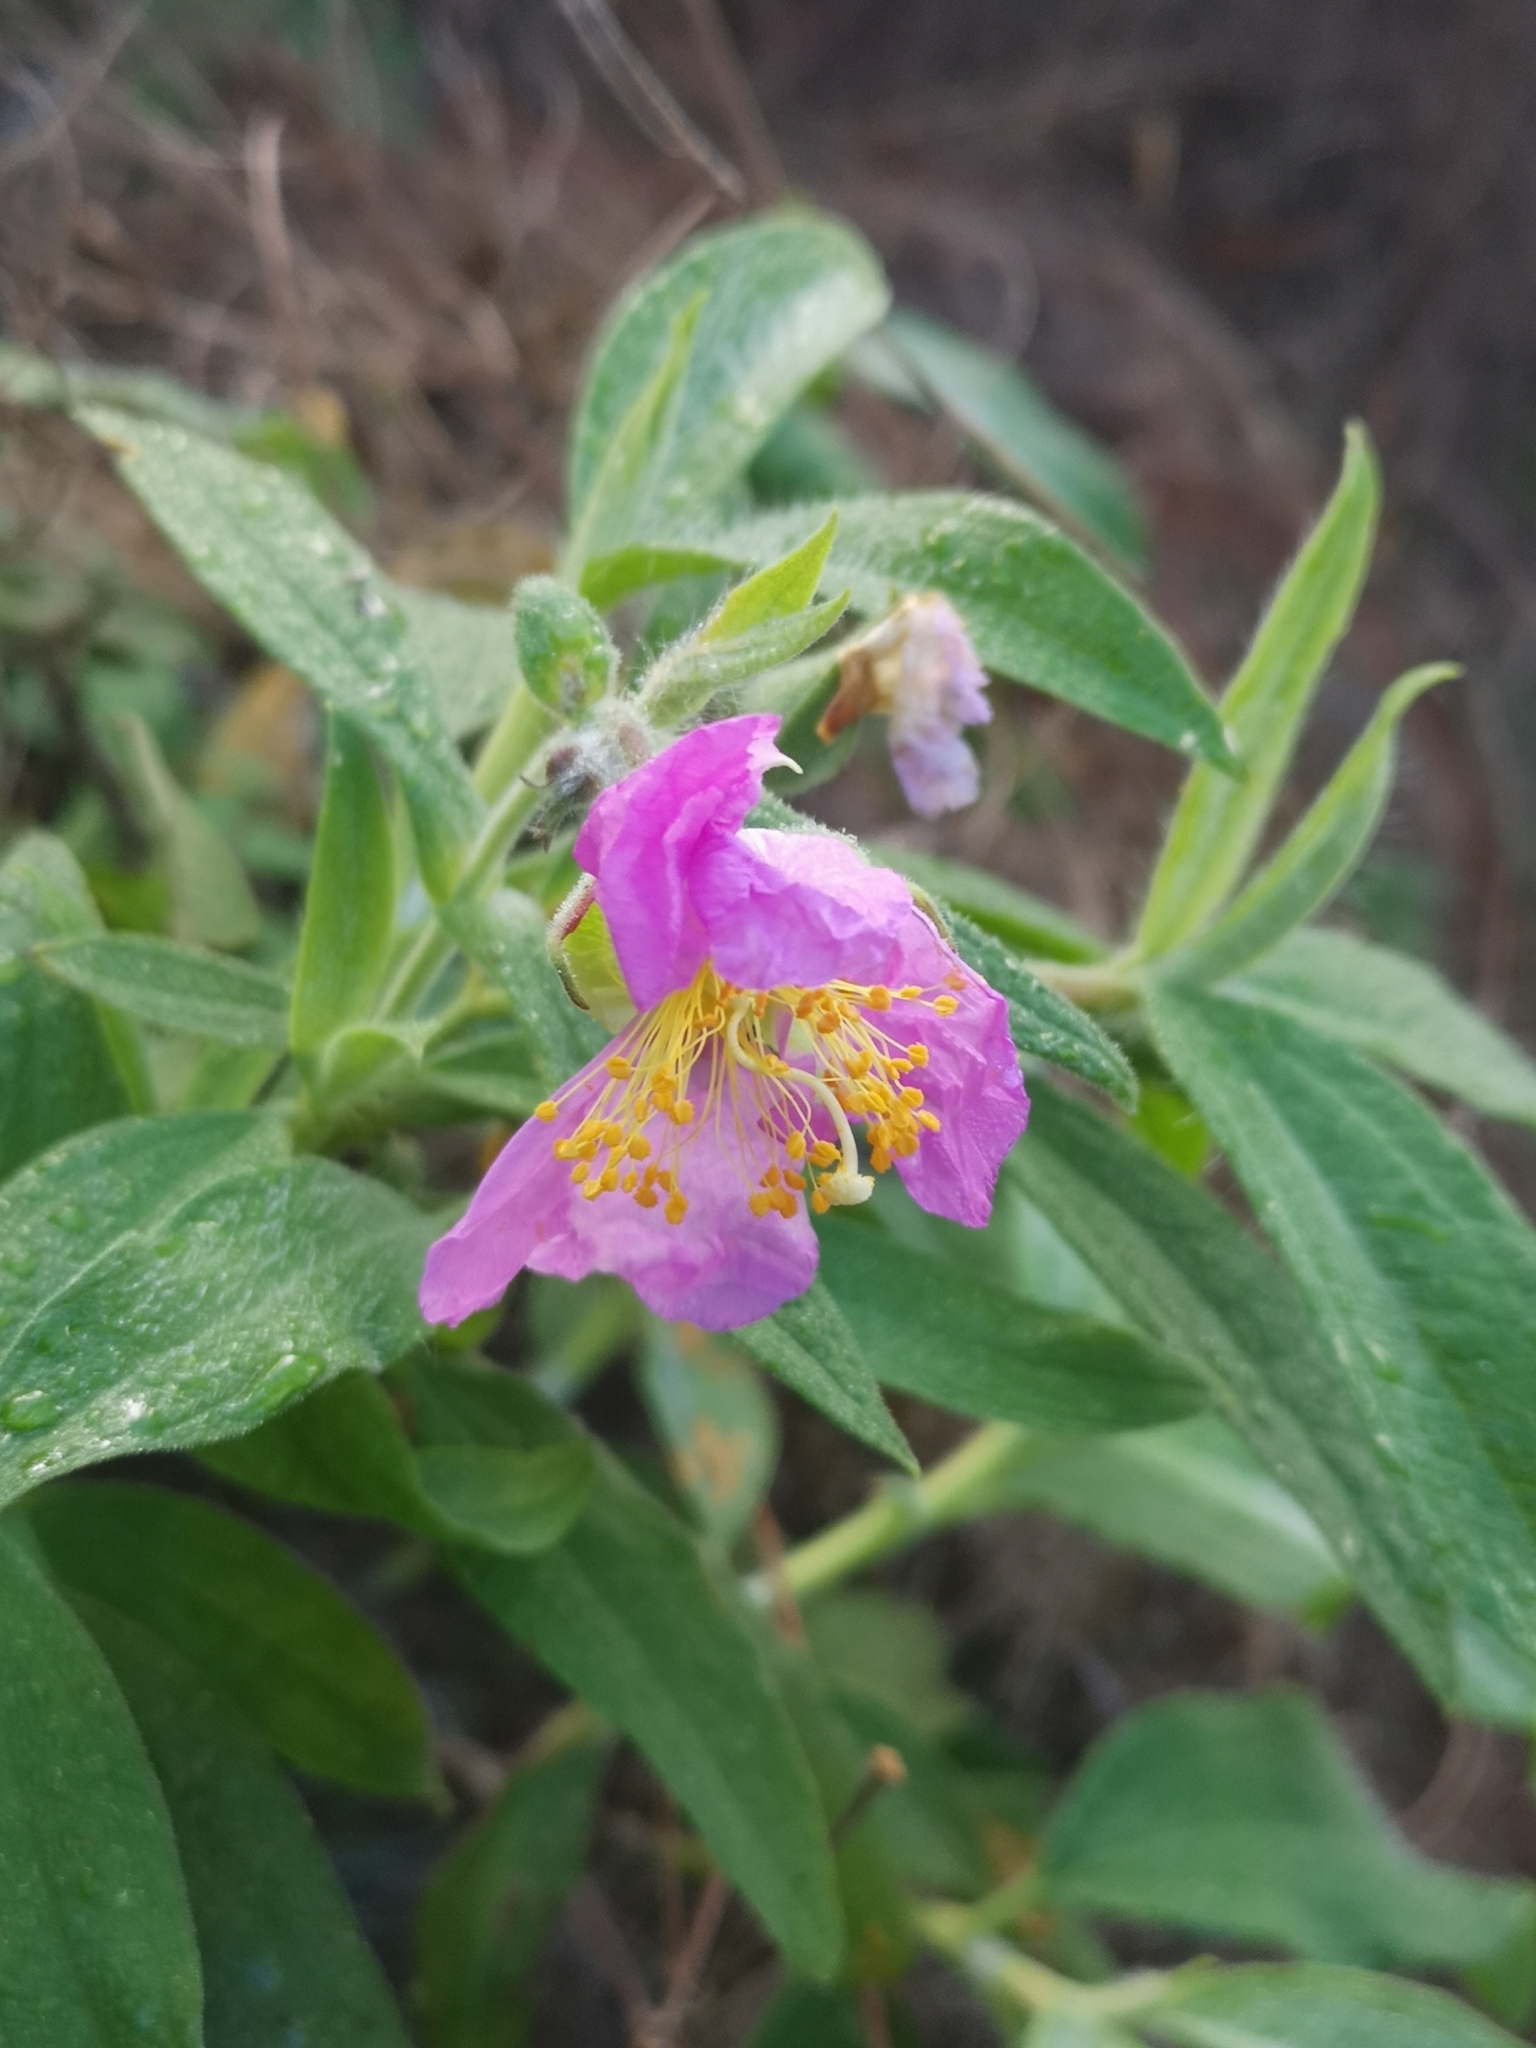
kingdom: Plantae
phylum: Tracheophyta
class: Magnoliopsida
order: Malvales
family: Cistaceae
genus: Cistus
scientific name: Cistus symphytifolius
